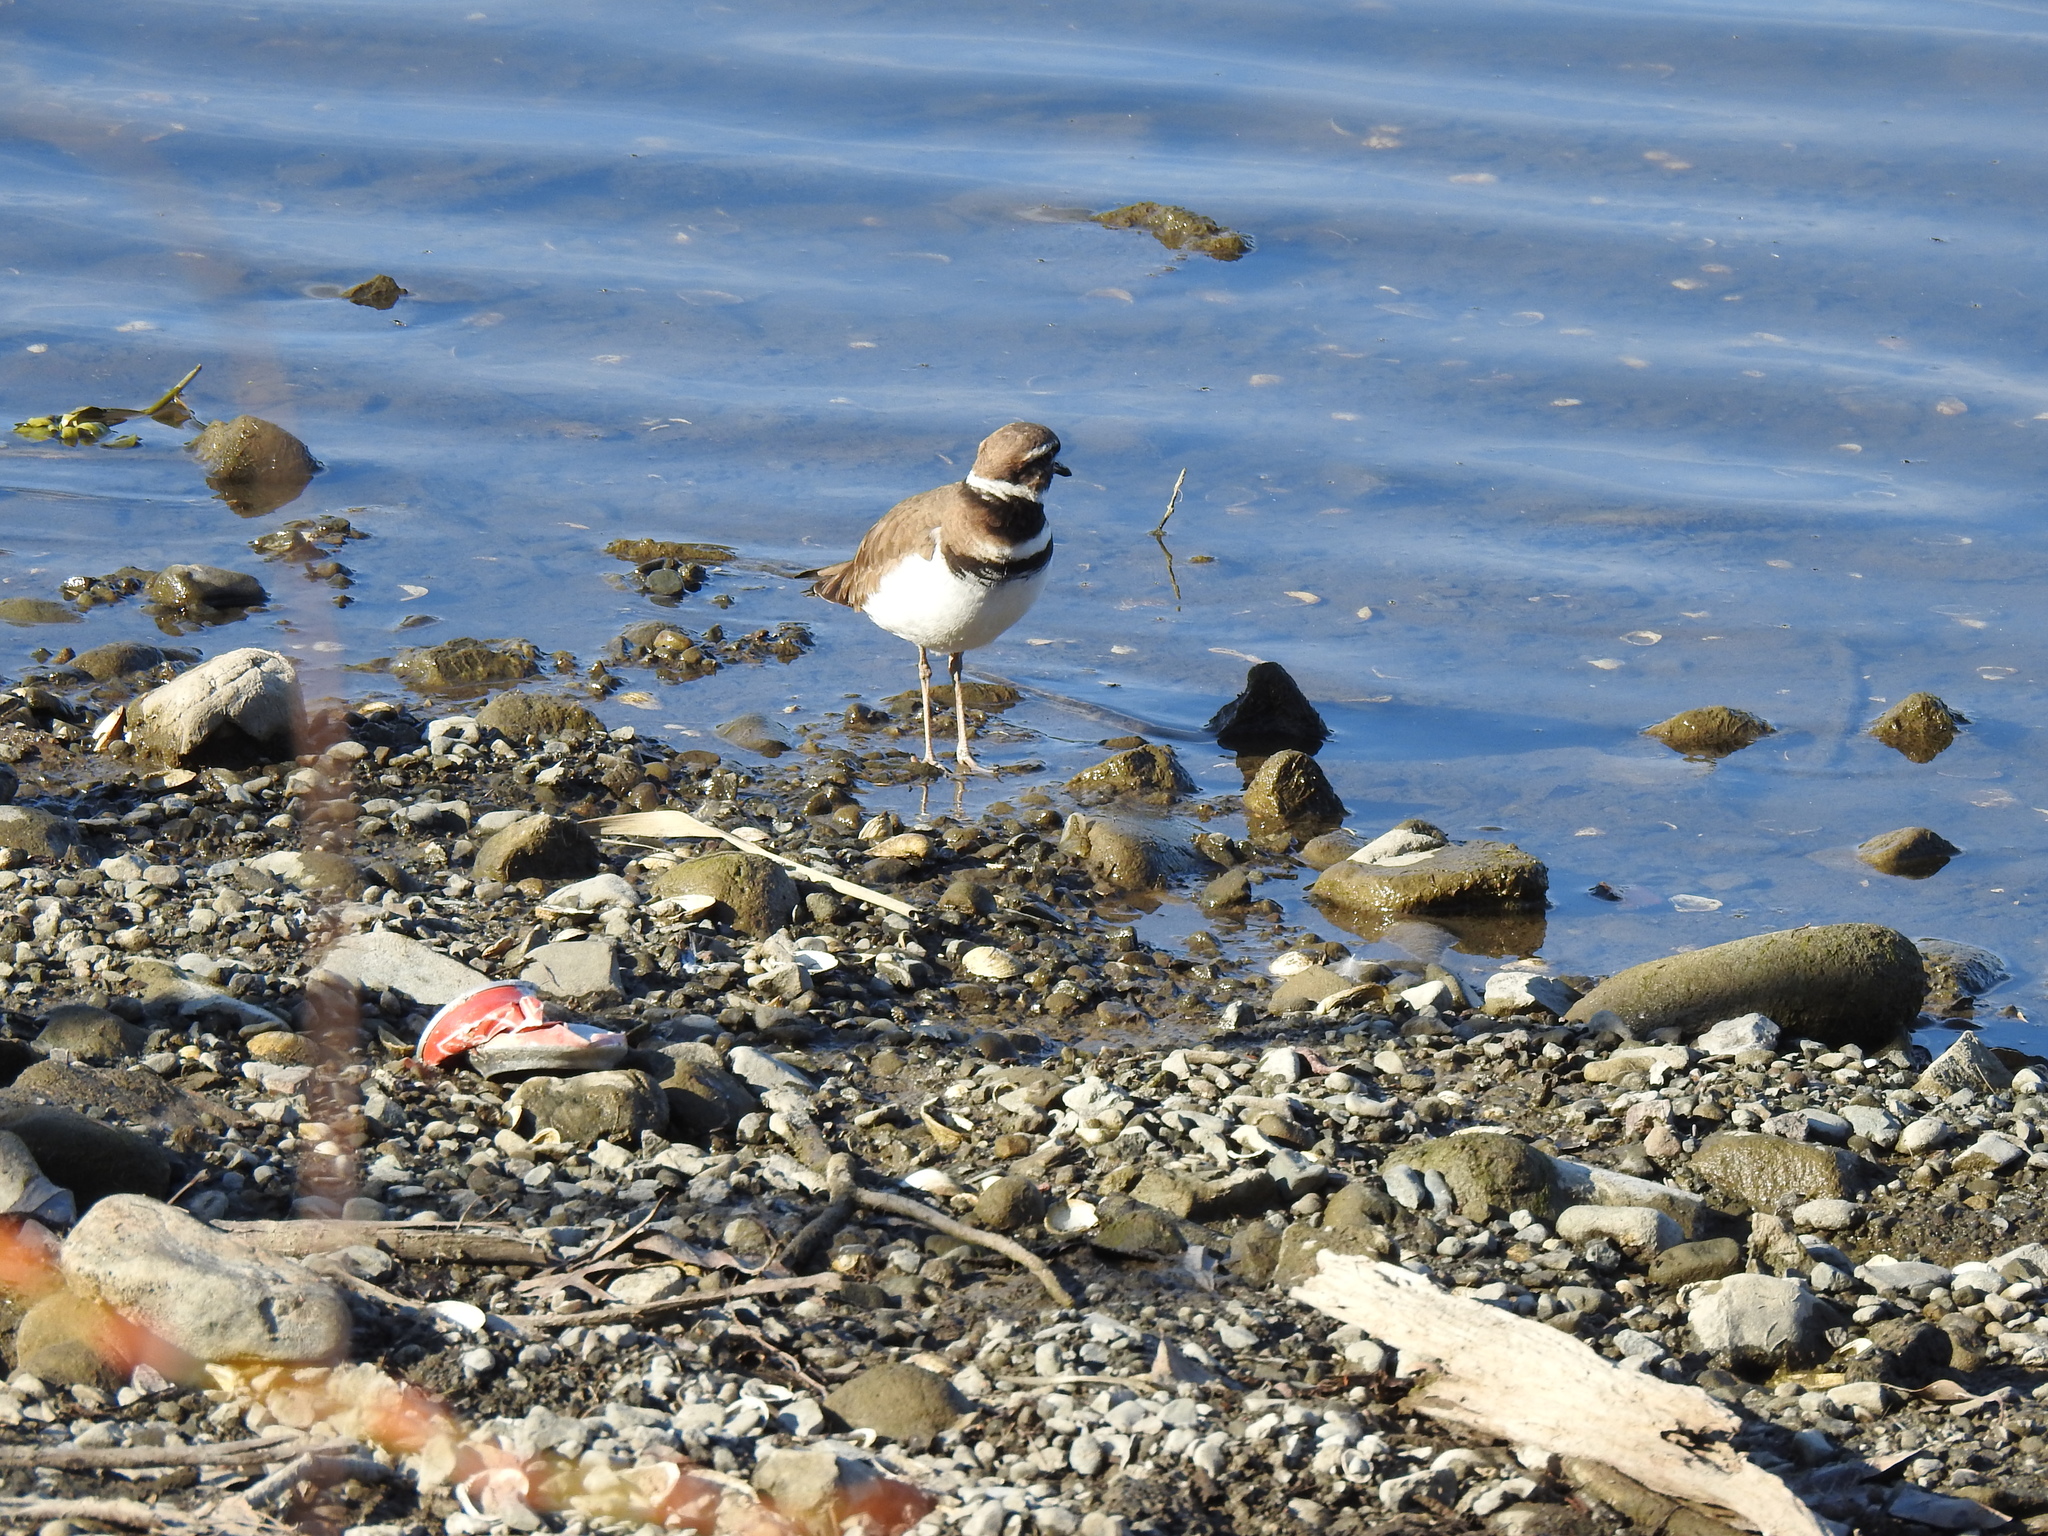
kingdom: Animalia
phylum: Chordata
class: Aves
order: Charadriiformes
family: Charadriidae
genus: Charadrius
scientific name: Charadrius vociferus
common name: Killdeer
